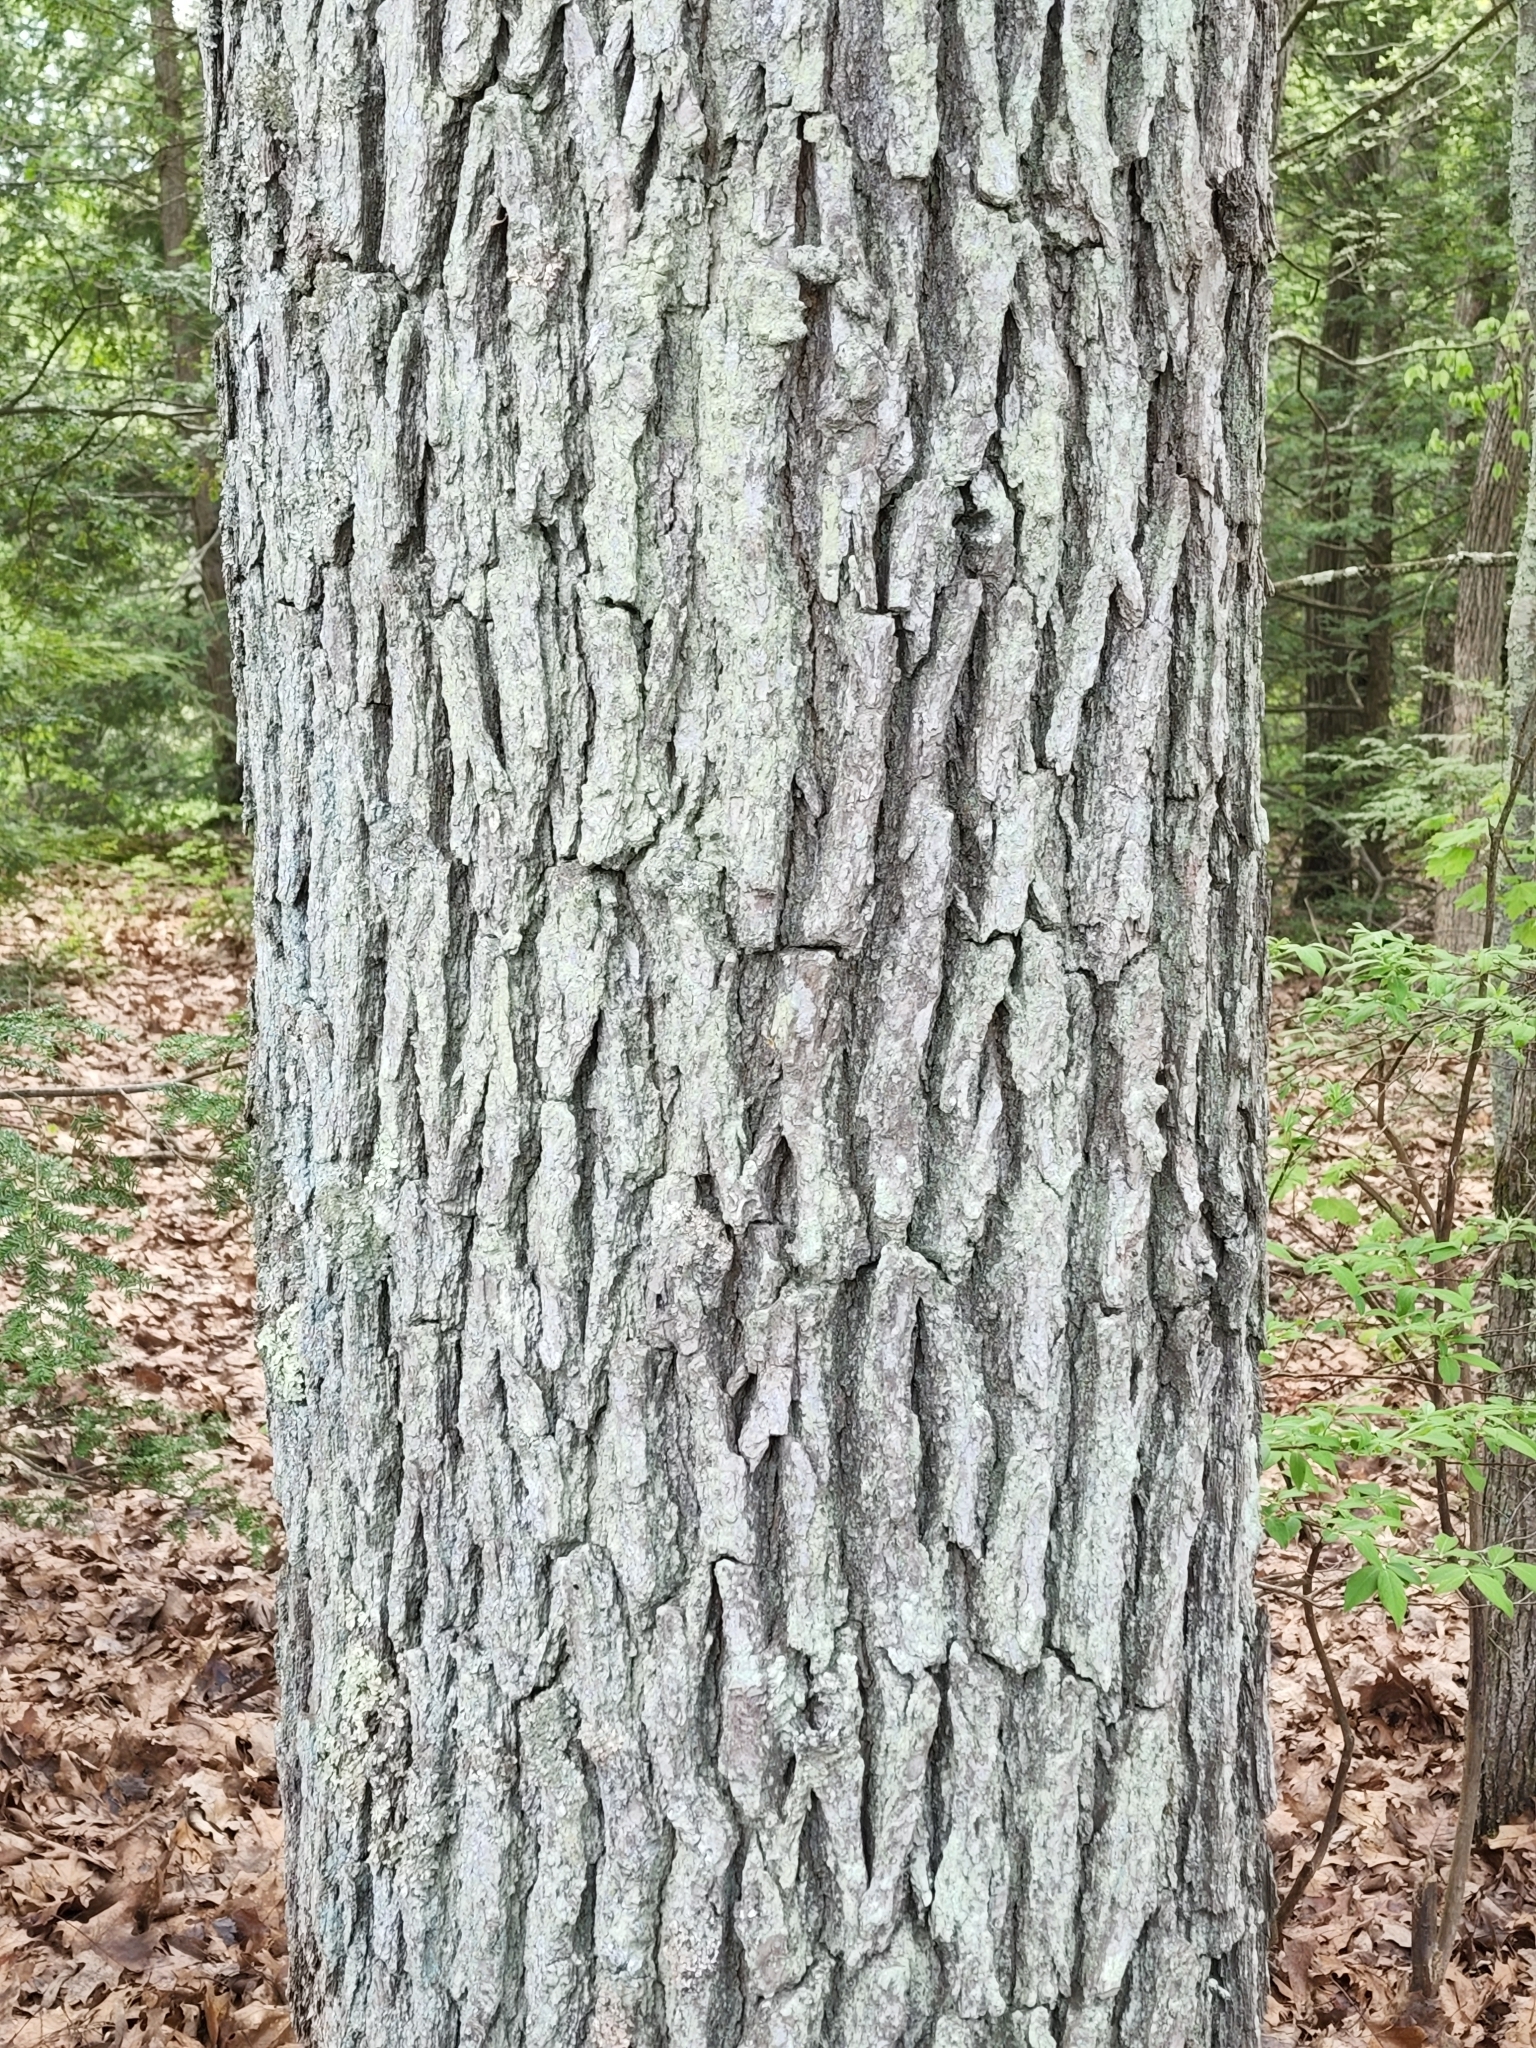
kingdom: Plantae
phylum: Tracheophyta
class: Magnoliopsida
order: Fagales
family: Fagaceae
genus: Quercus
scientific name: Quercus bicolor
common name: Swamp white oak
